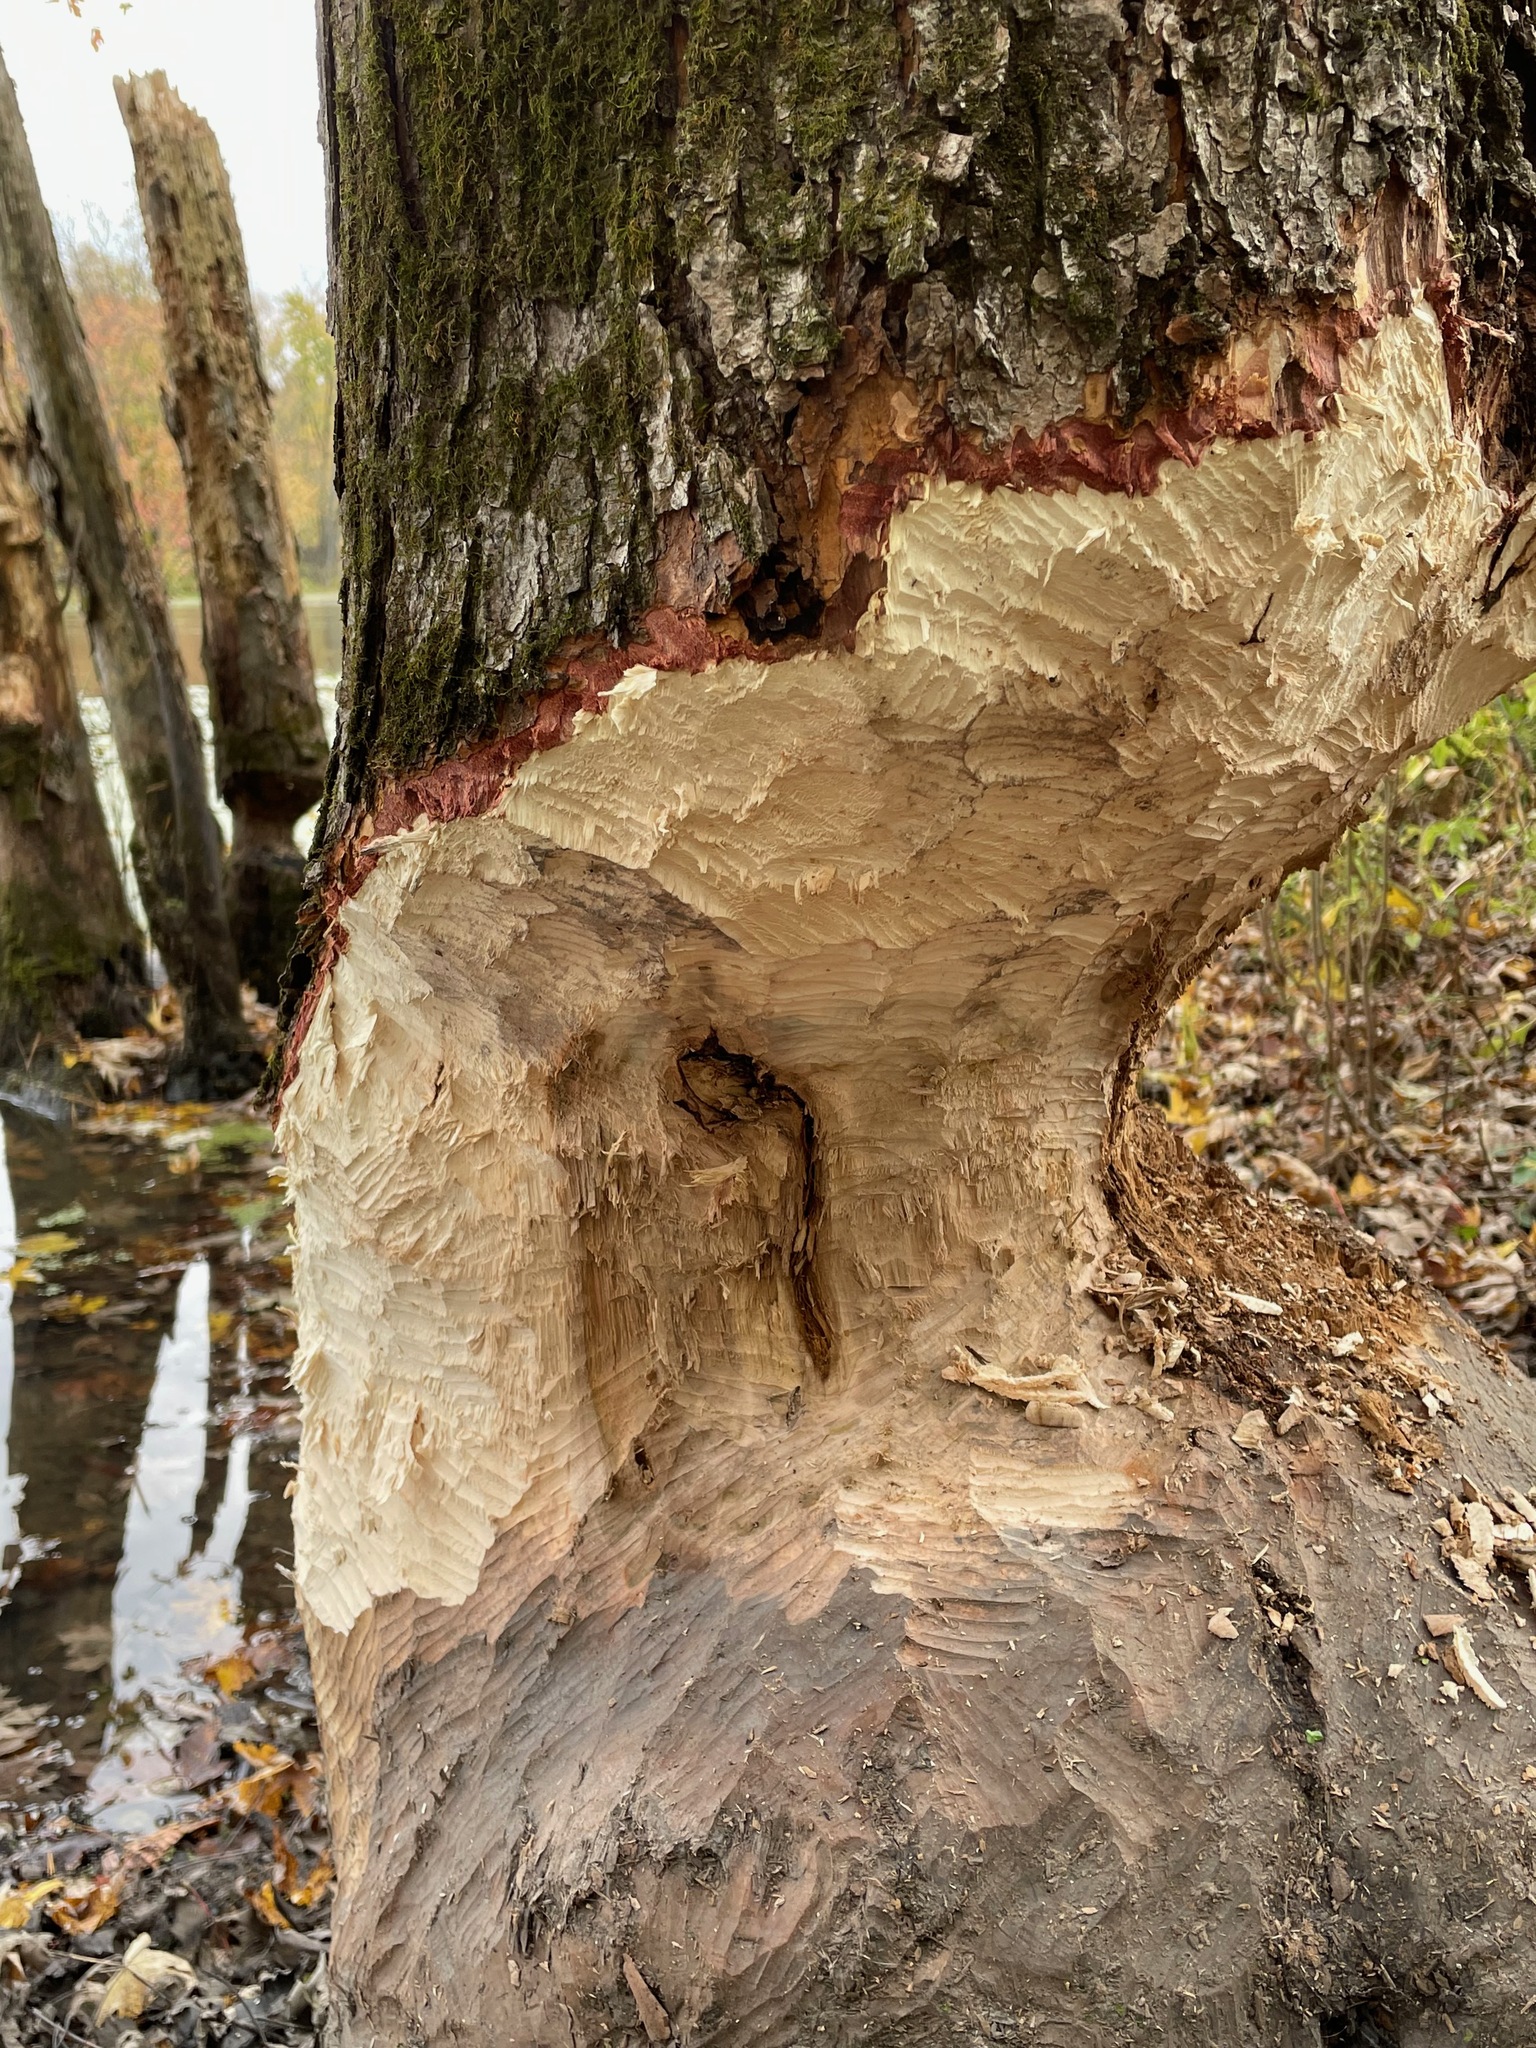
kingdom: Animalia
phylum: Chordata
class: Mammalia
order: Rodentia
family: Castoridae
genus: Castor
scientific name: Castor canadensis
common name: American beaver
